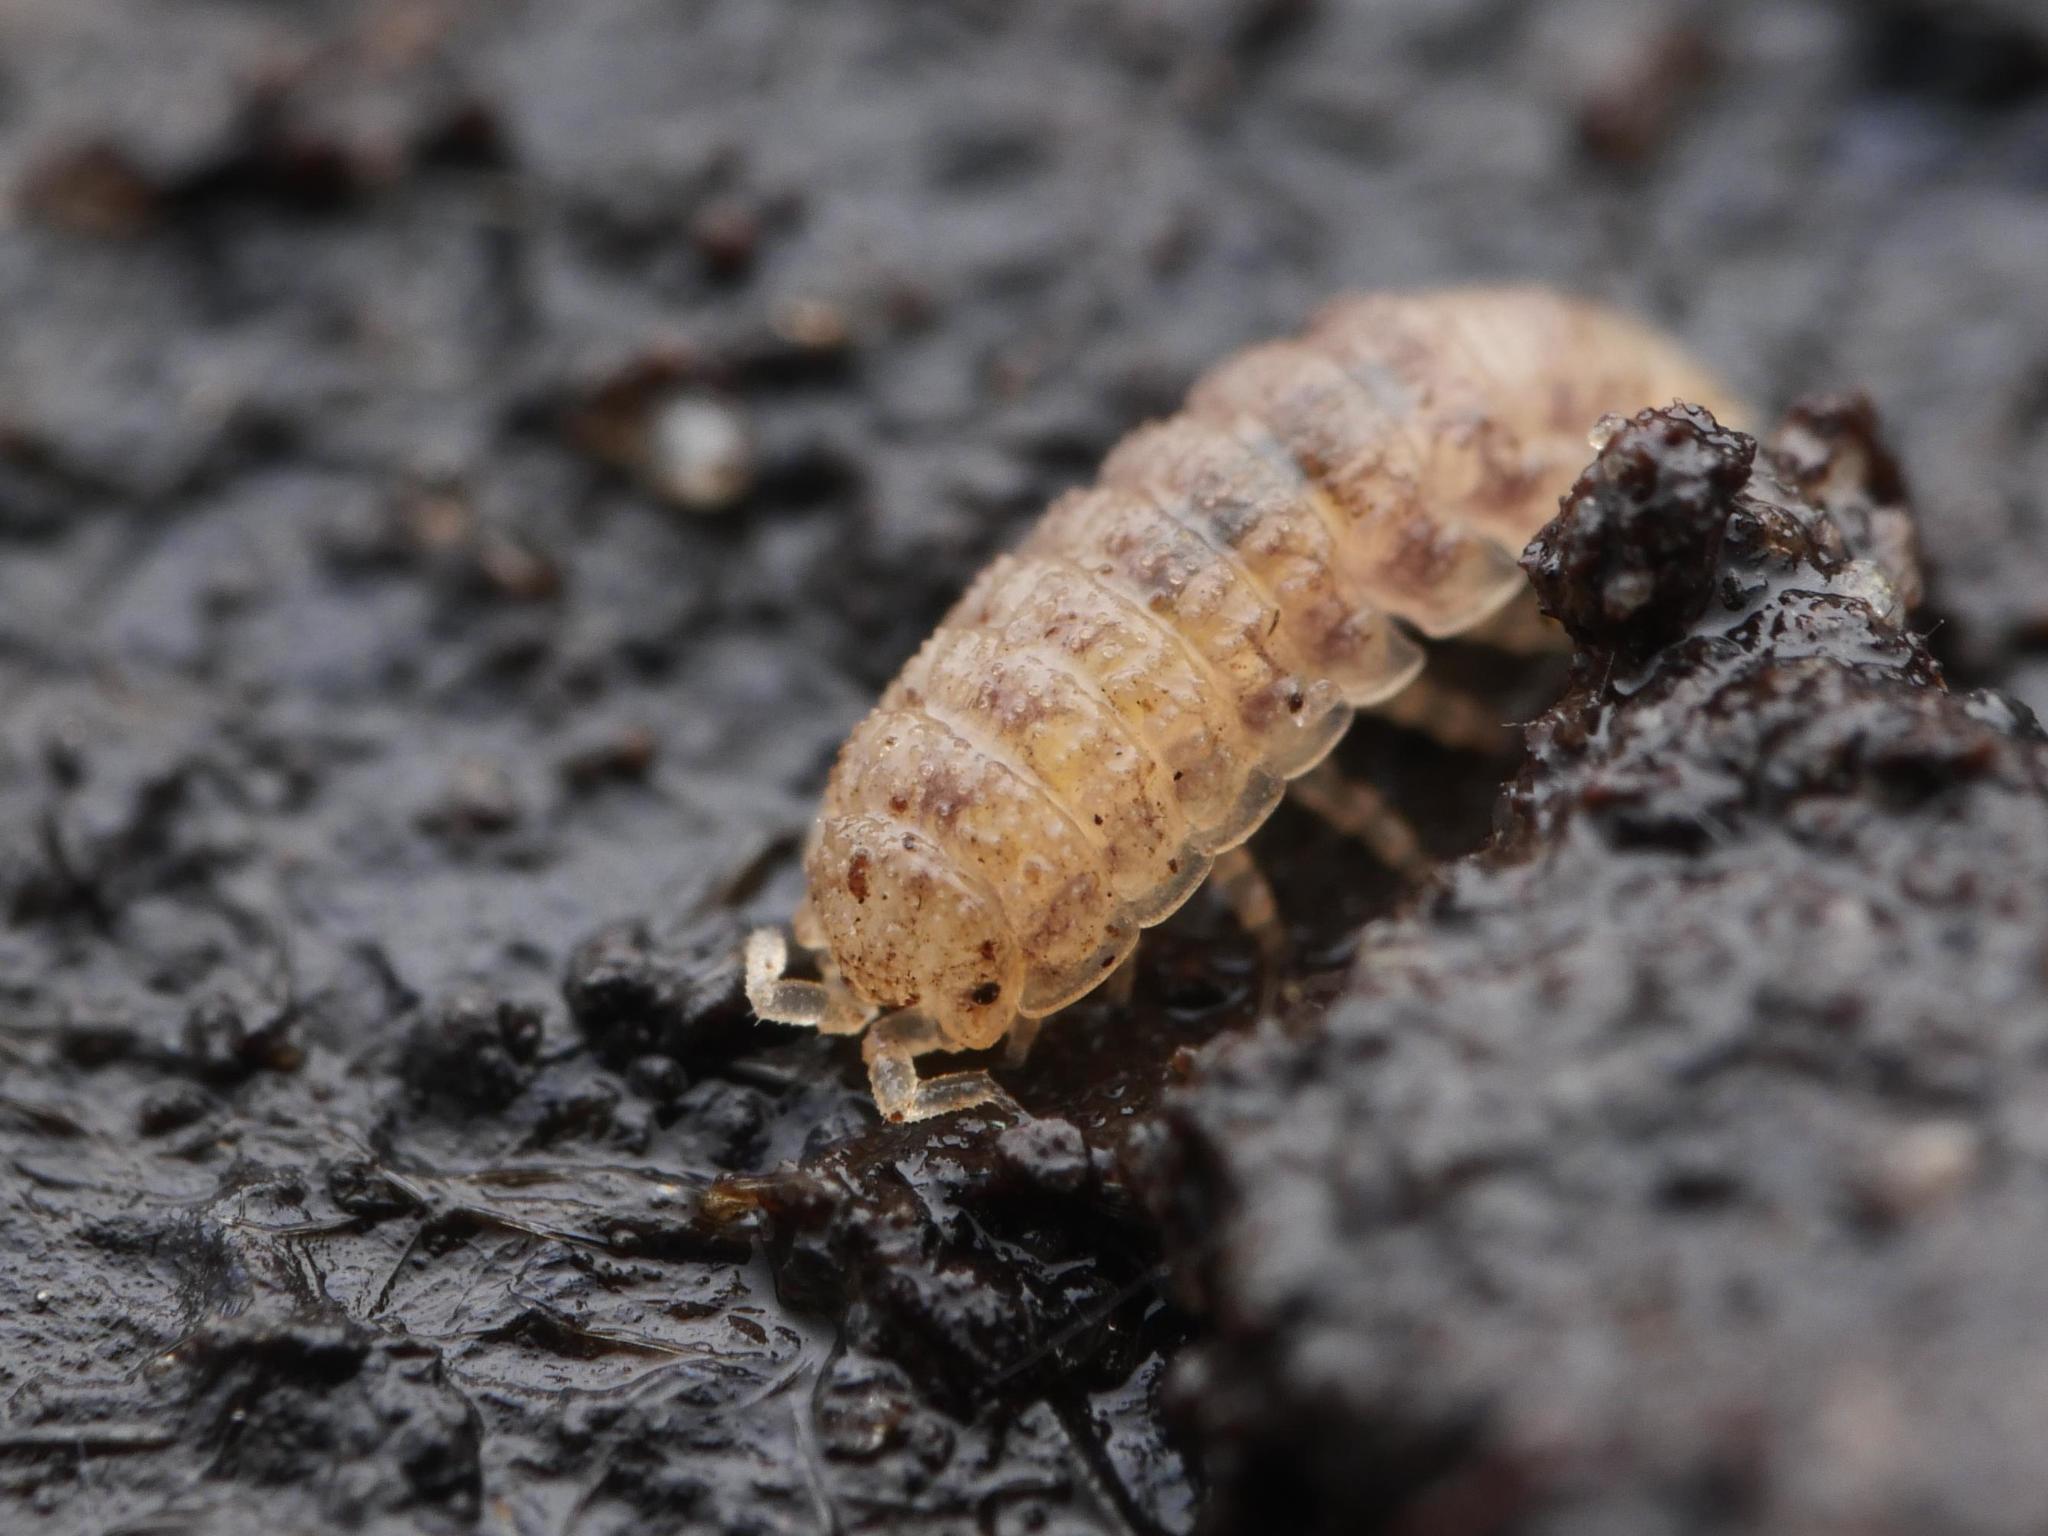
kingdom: Animalia
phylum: Arthropoda
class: Malacostraca
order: Isopoda
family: Trichoniscidae
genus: Haplophthalmus
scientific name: Haplophthalmus danicus
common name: Pillbug
